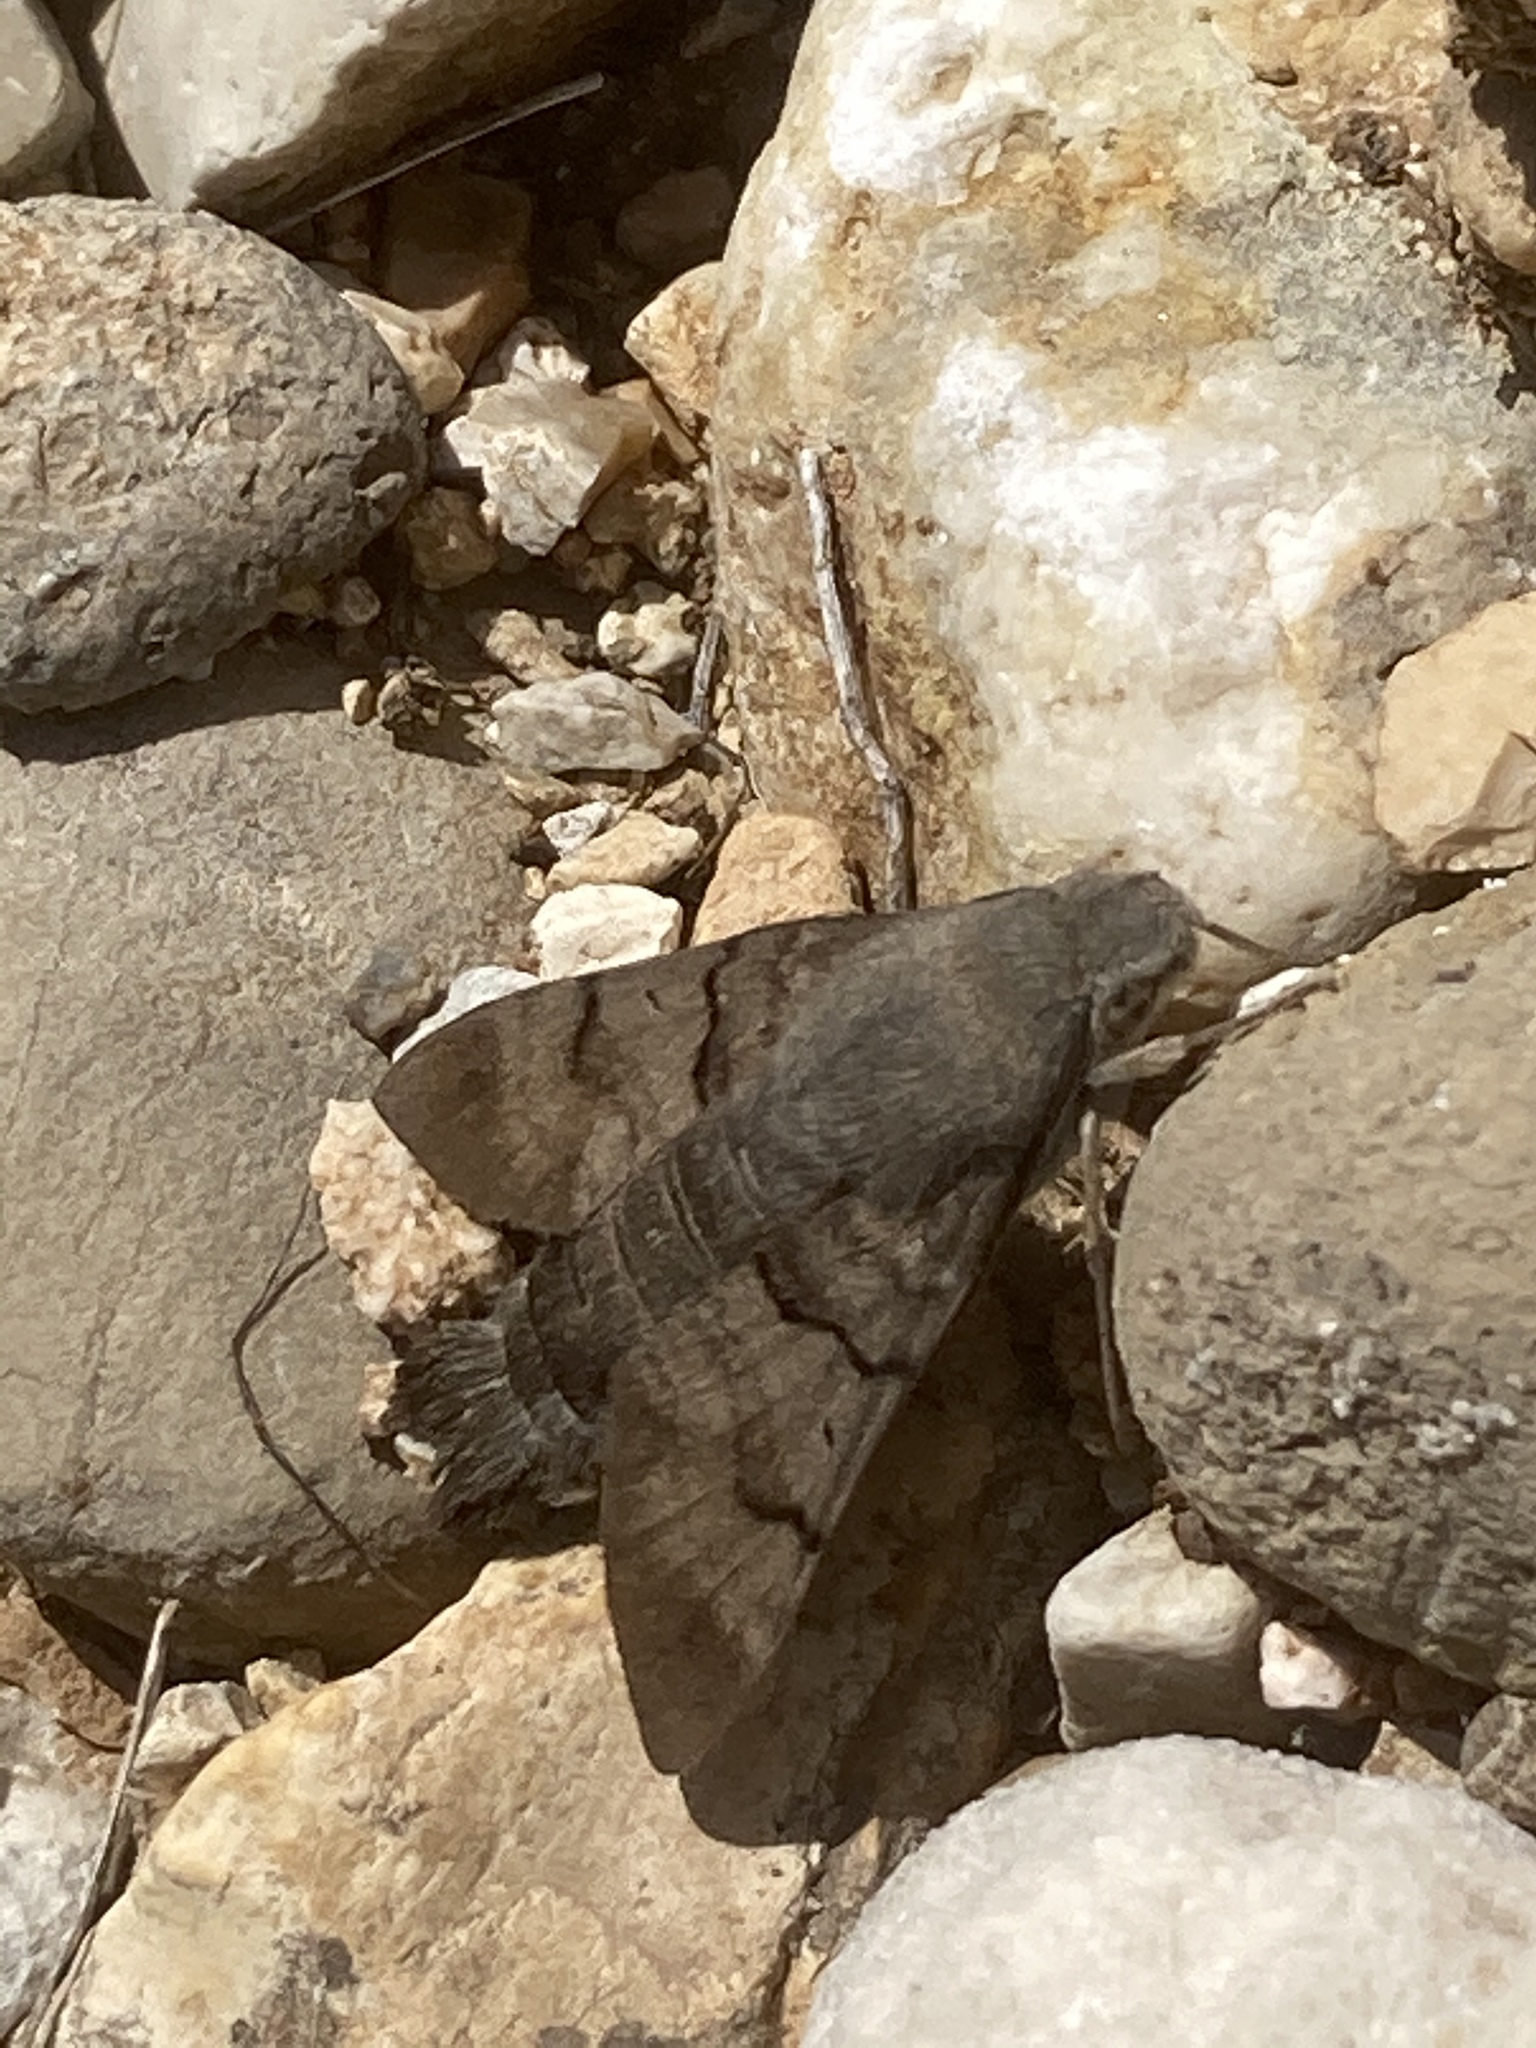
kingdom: Animalia
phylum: Arthropoda
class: Insecta
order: Lepidoptera
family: Sphingidae
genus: Macroglossum
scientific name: Macroglossum stellatarum
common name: Humming-bird hawk-moth
